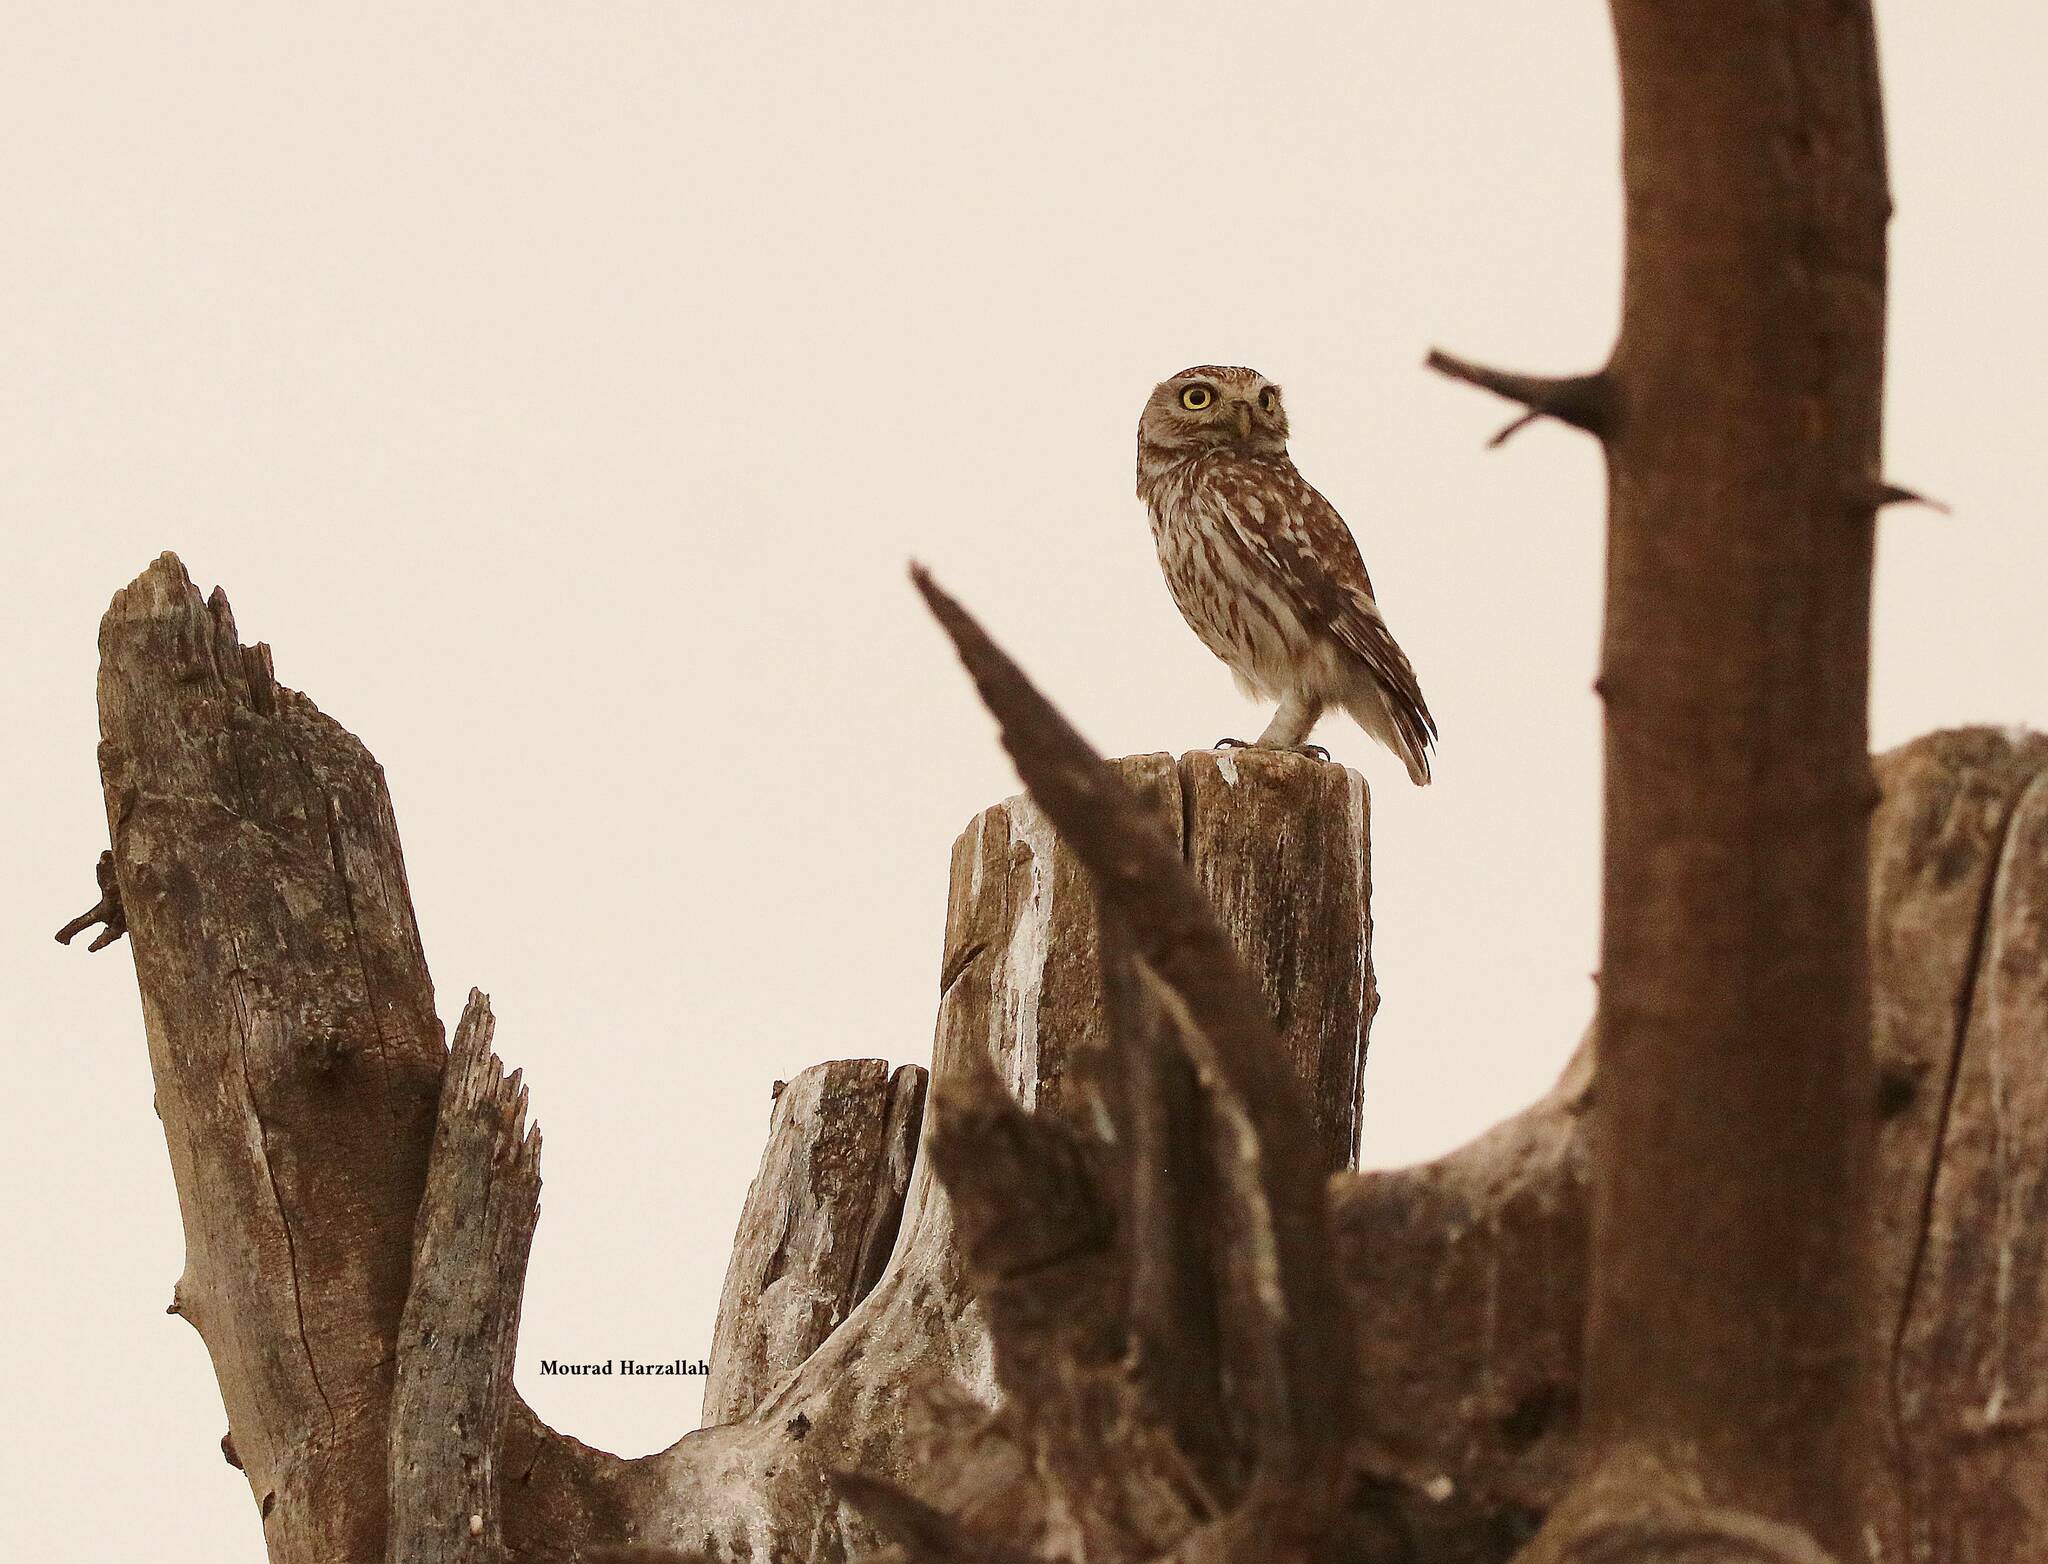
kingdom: Animalia
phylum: Chordata
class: Aves
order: Strigiformes
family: Strigidae
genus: Athene
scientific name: Athene noctua
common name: Little owl
